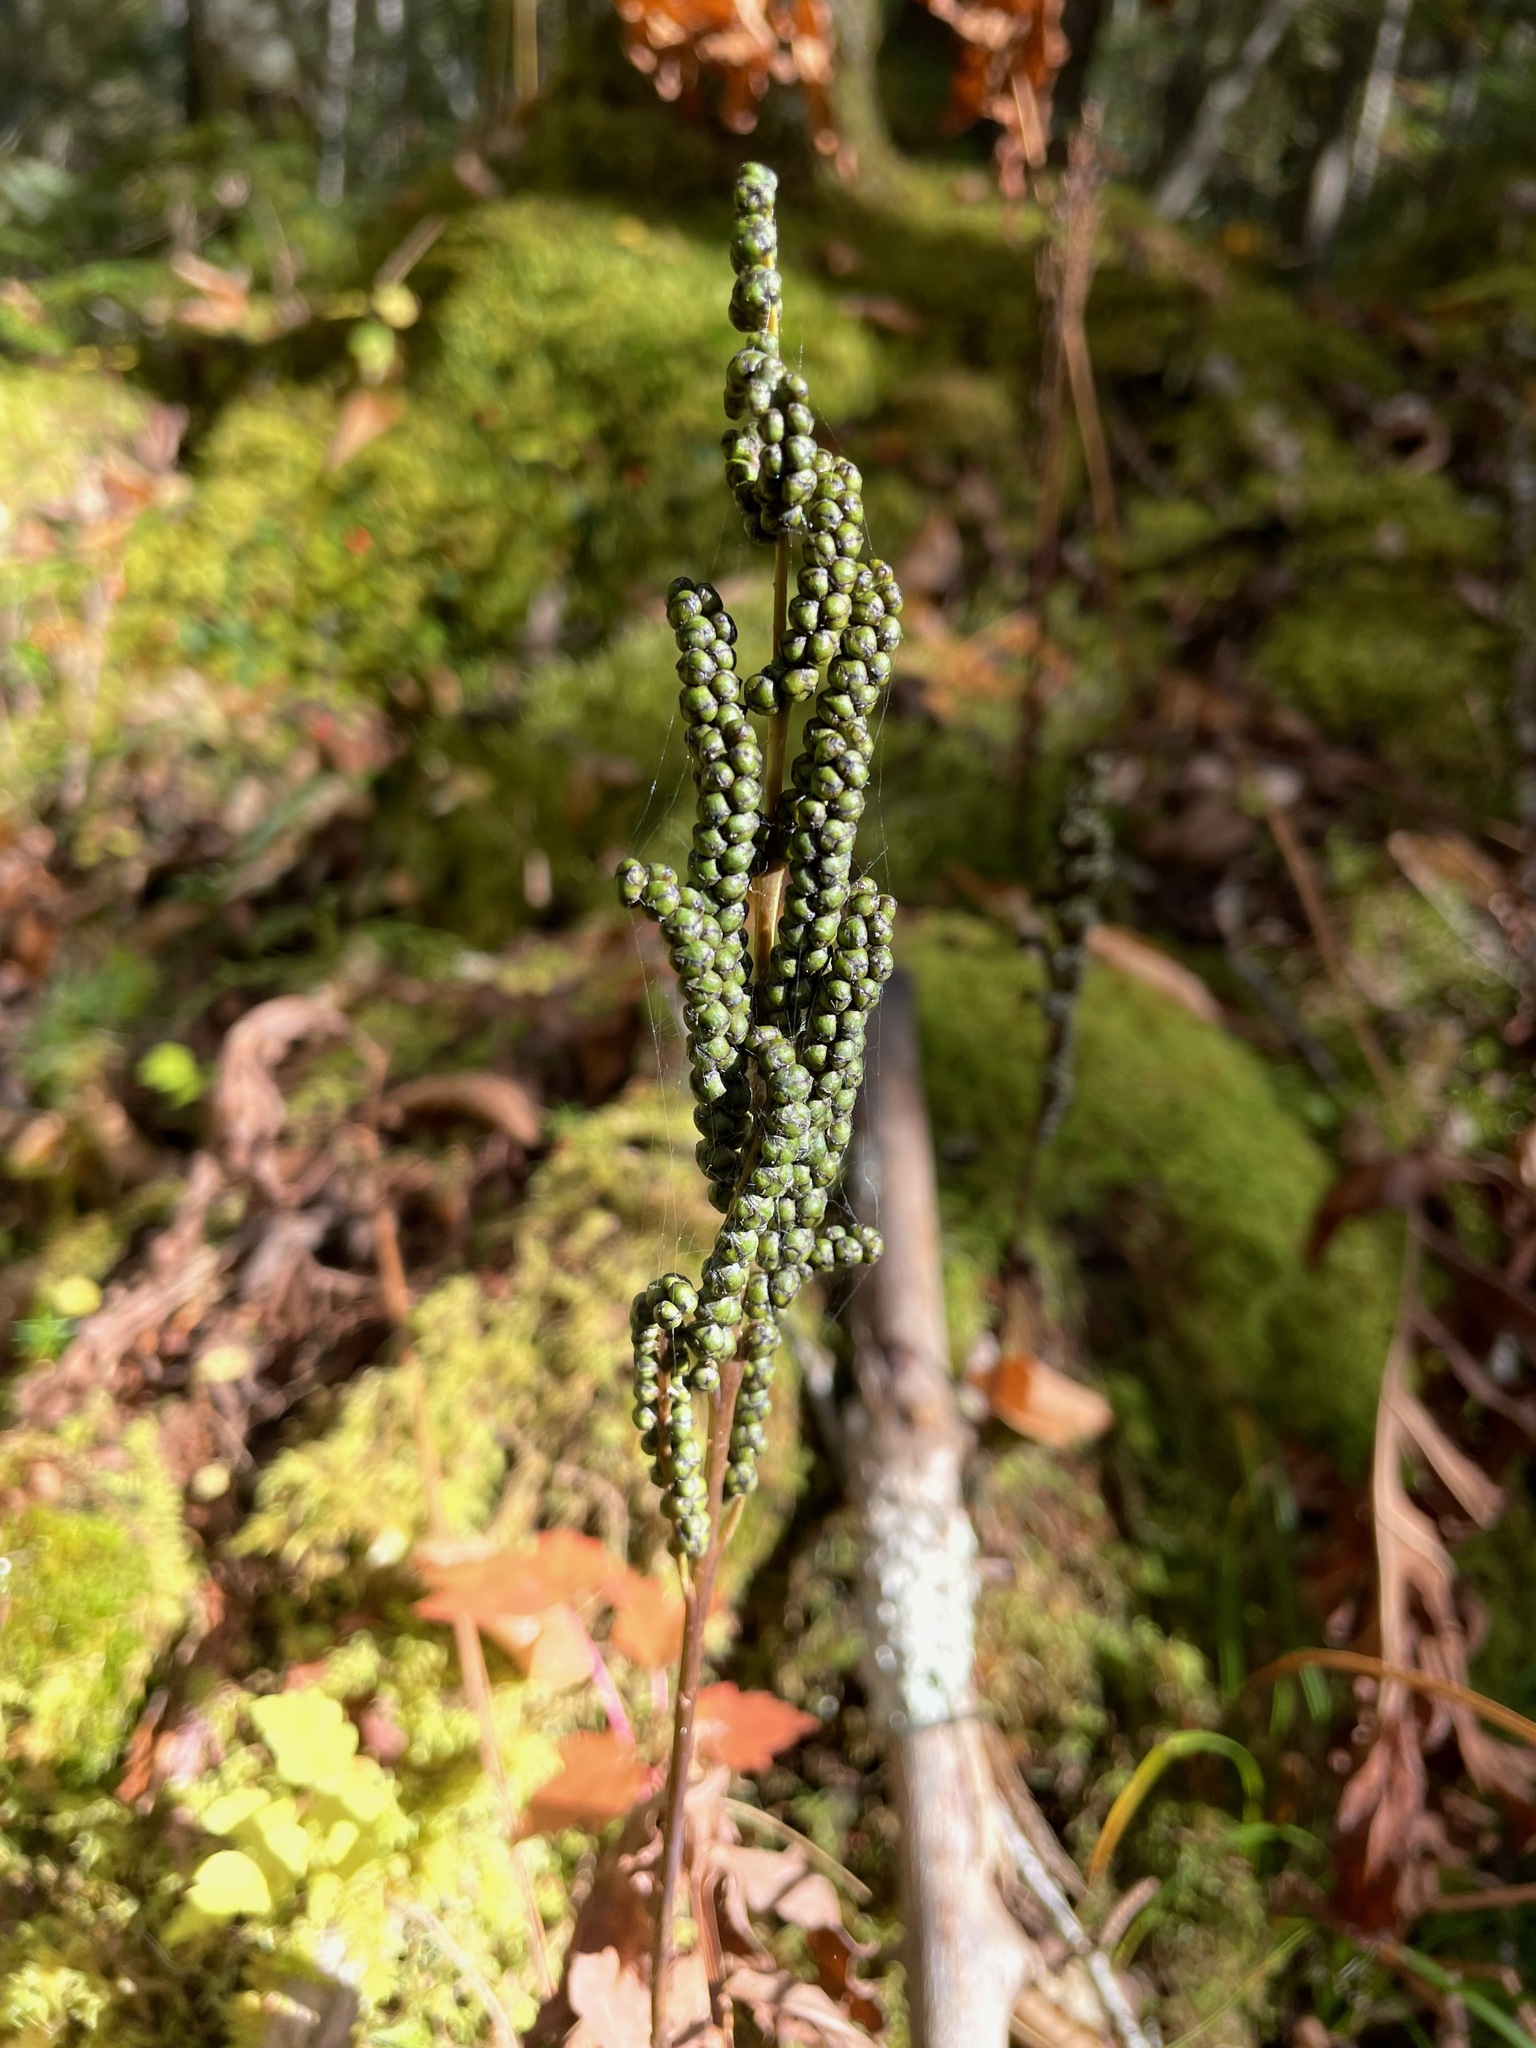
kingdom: Plantae
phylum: Tracheophyta
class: Polypodiopsida
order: Polypodiales
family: Onocleaceae
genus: Onoclea
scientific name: Onoclea sensibilis
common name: Sensitive fern
